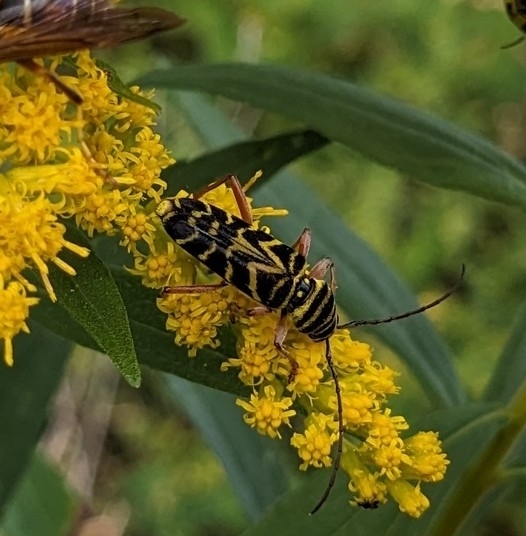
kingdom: Animalia
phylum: Arthropoda
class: Insecta
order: Coleoptera
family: Cerambycidae
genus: Megacyllene
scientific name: Megacyllene robiniae
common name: Locust borer
